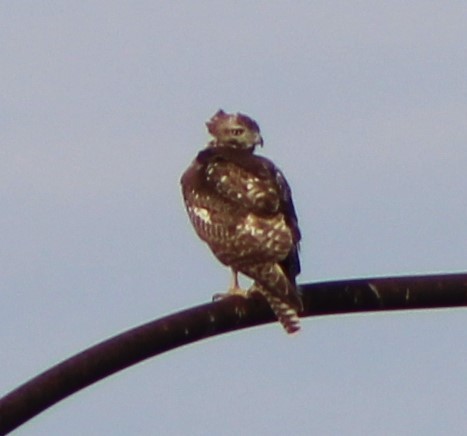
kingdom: Animalia
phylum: Chordata
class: Aves
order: Accipitriformes
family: Accipitridae
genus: Buteo
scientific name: Buteo jamaicensis
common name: Red-tailed hawk
